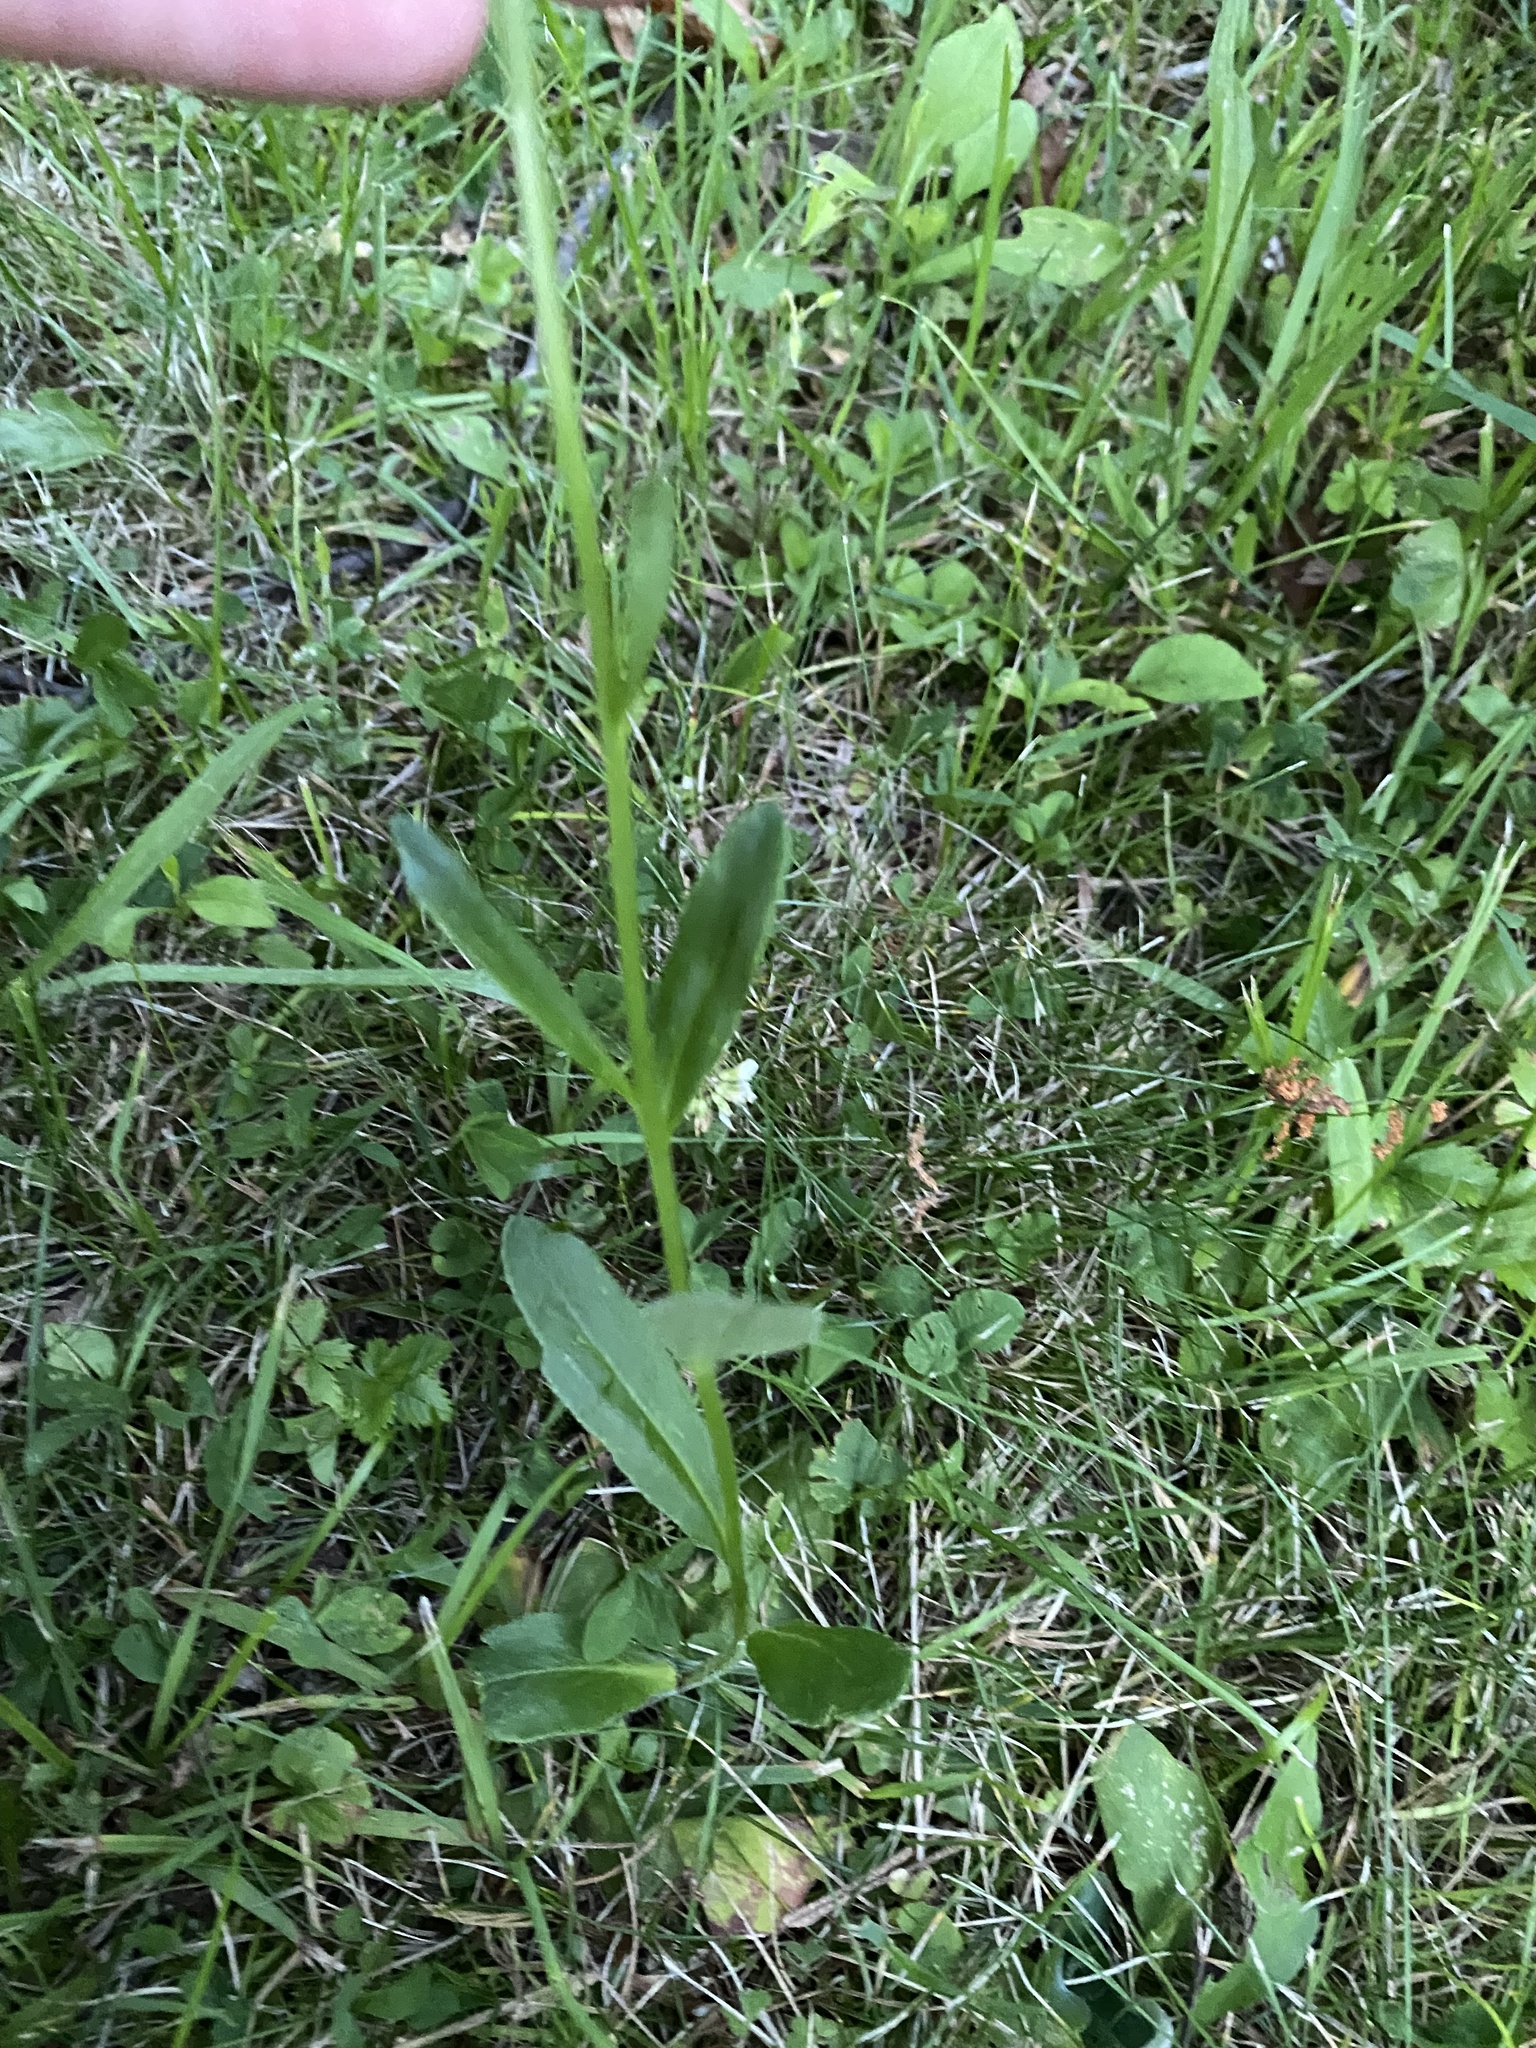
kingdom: Plantae
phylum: Tracheophyta
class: Magnoliopsida
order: Asterales
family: Campanulaceae
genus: Lobelia
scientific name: Lobelia spicata
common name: Pale-spike lobelia
